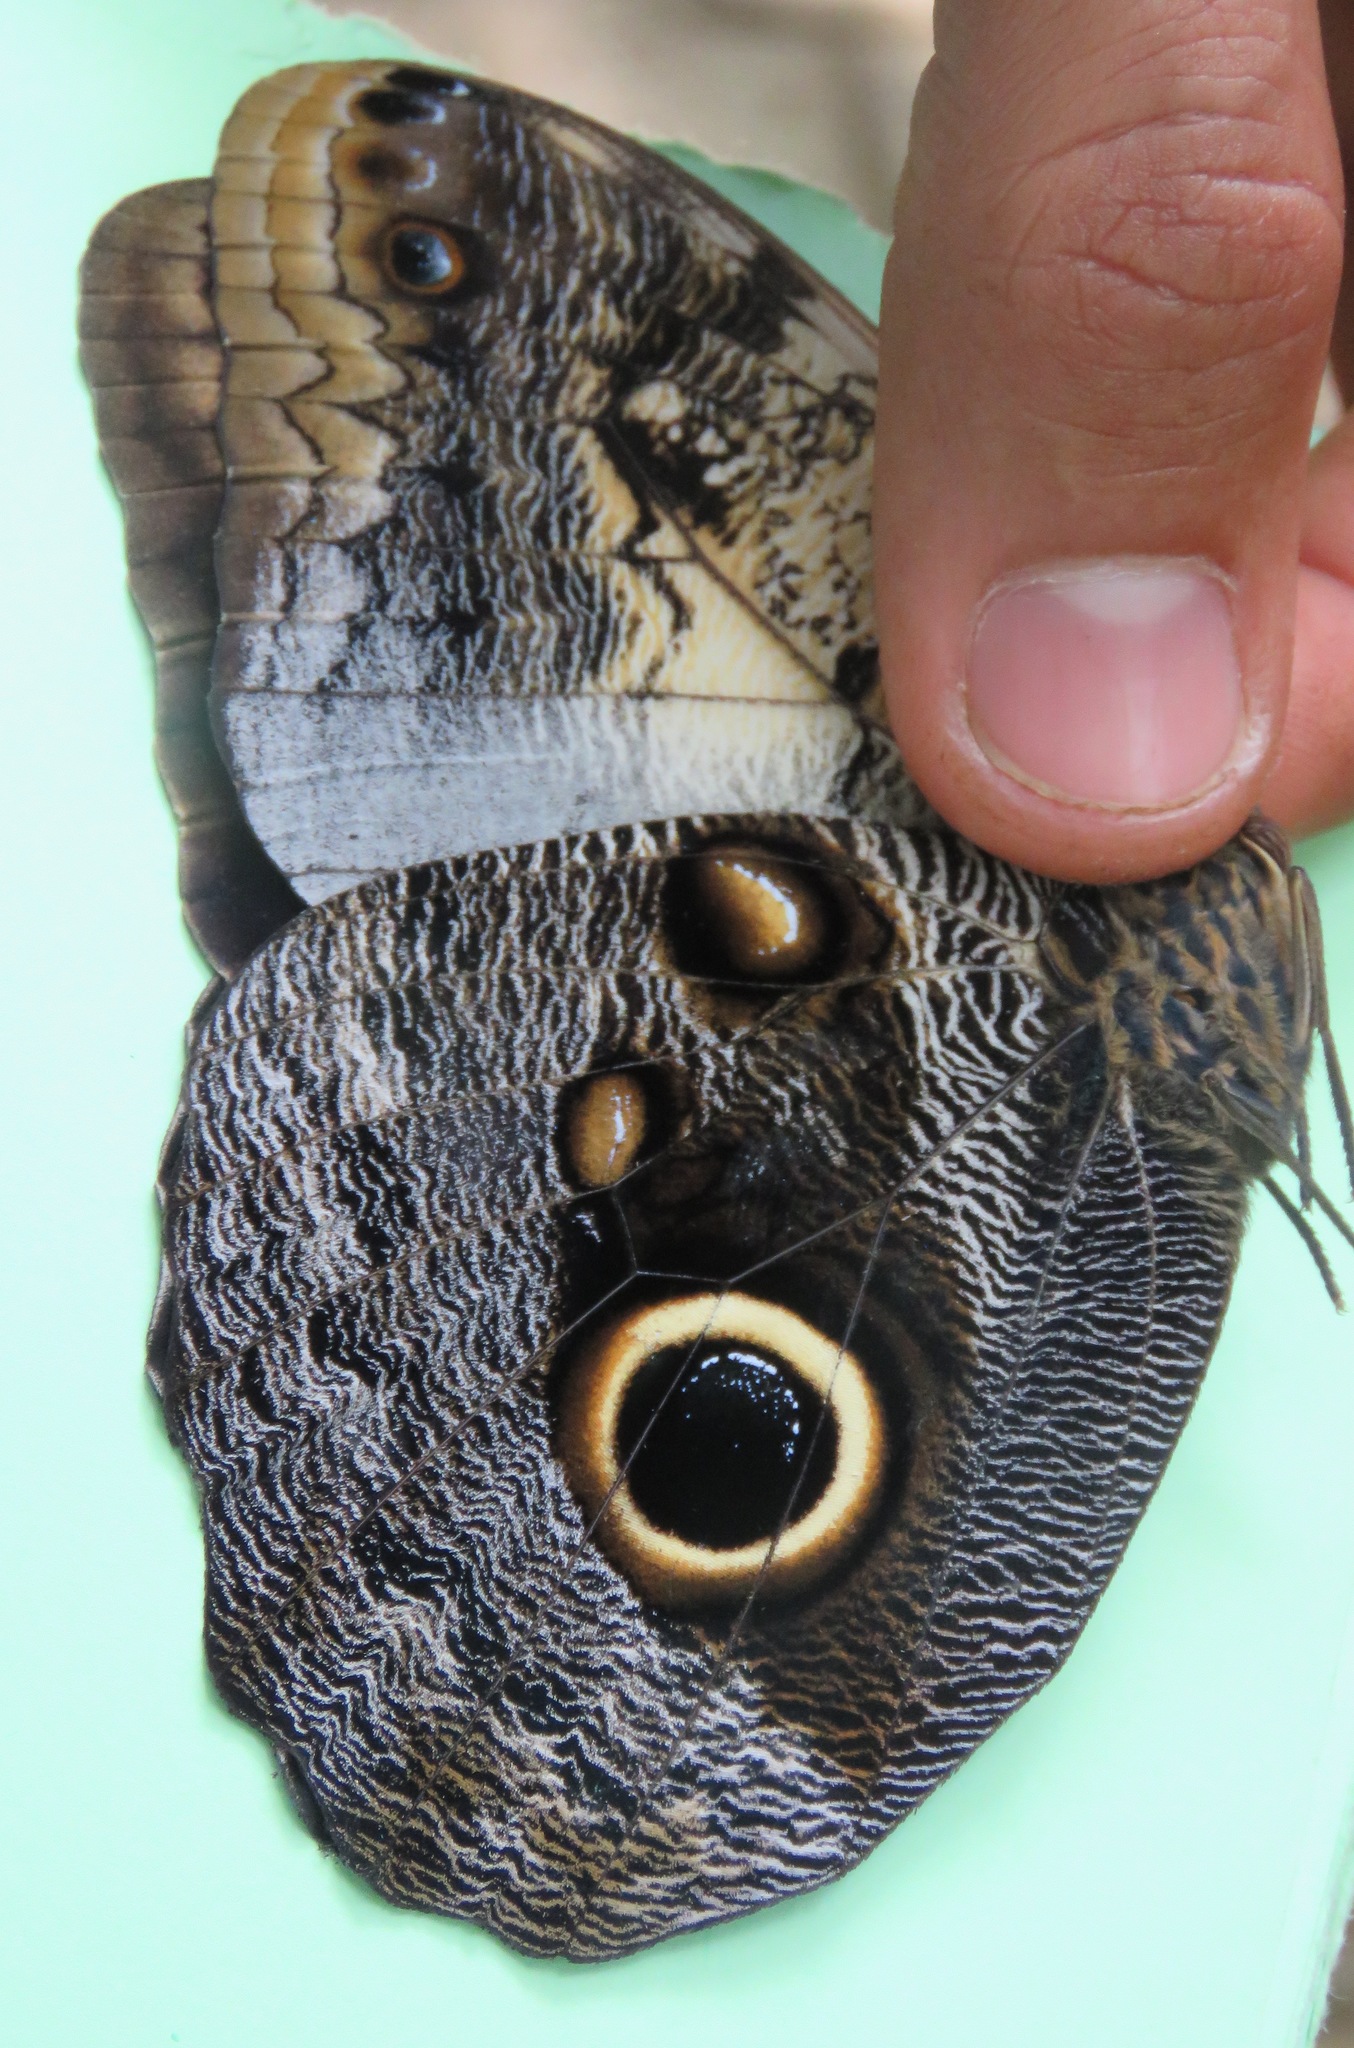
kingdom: Animalia
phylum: Arthropoda
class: Insecta
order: Lepidoptera
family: Nymphalidae
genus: Caligo
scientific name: Caligo telamonius
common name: Pale owl-butterfly
